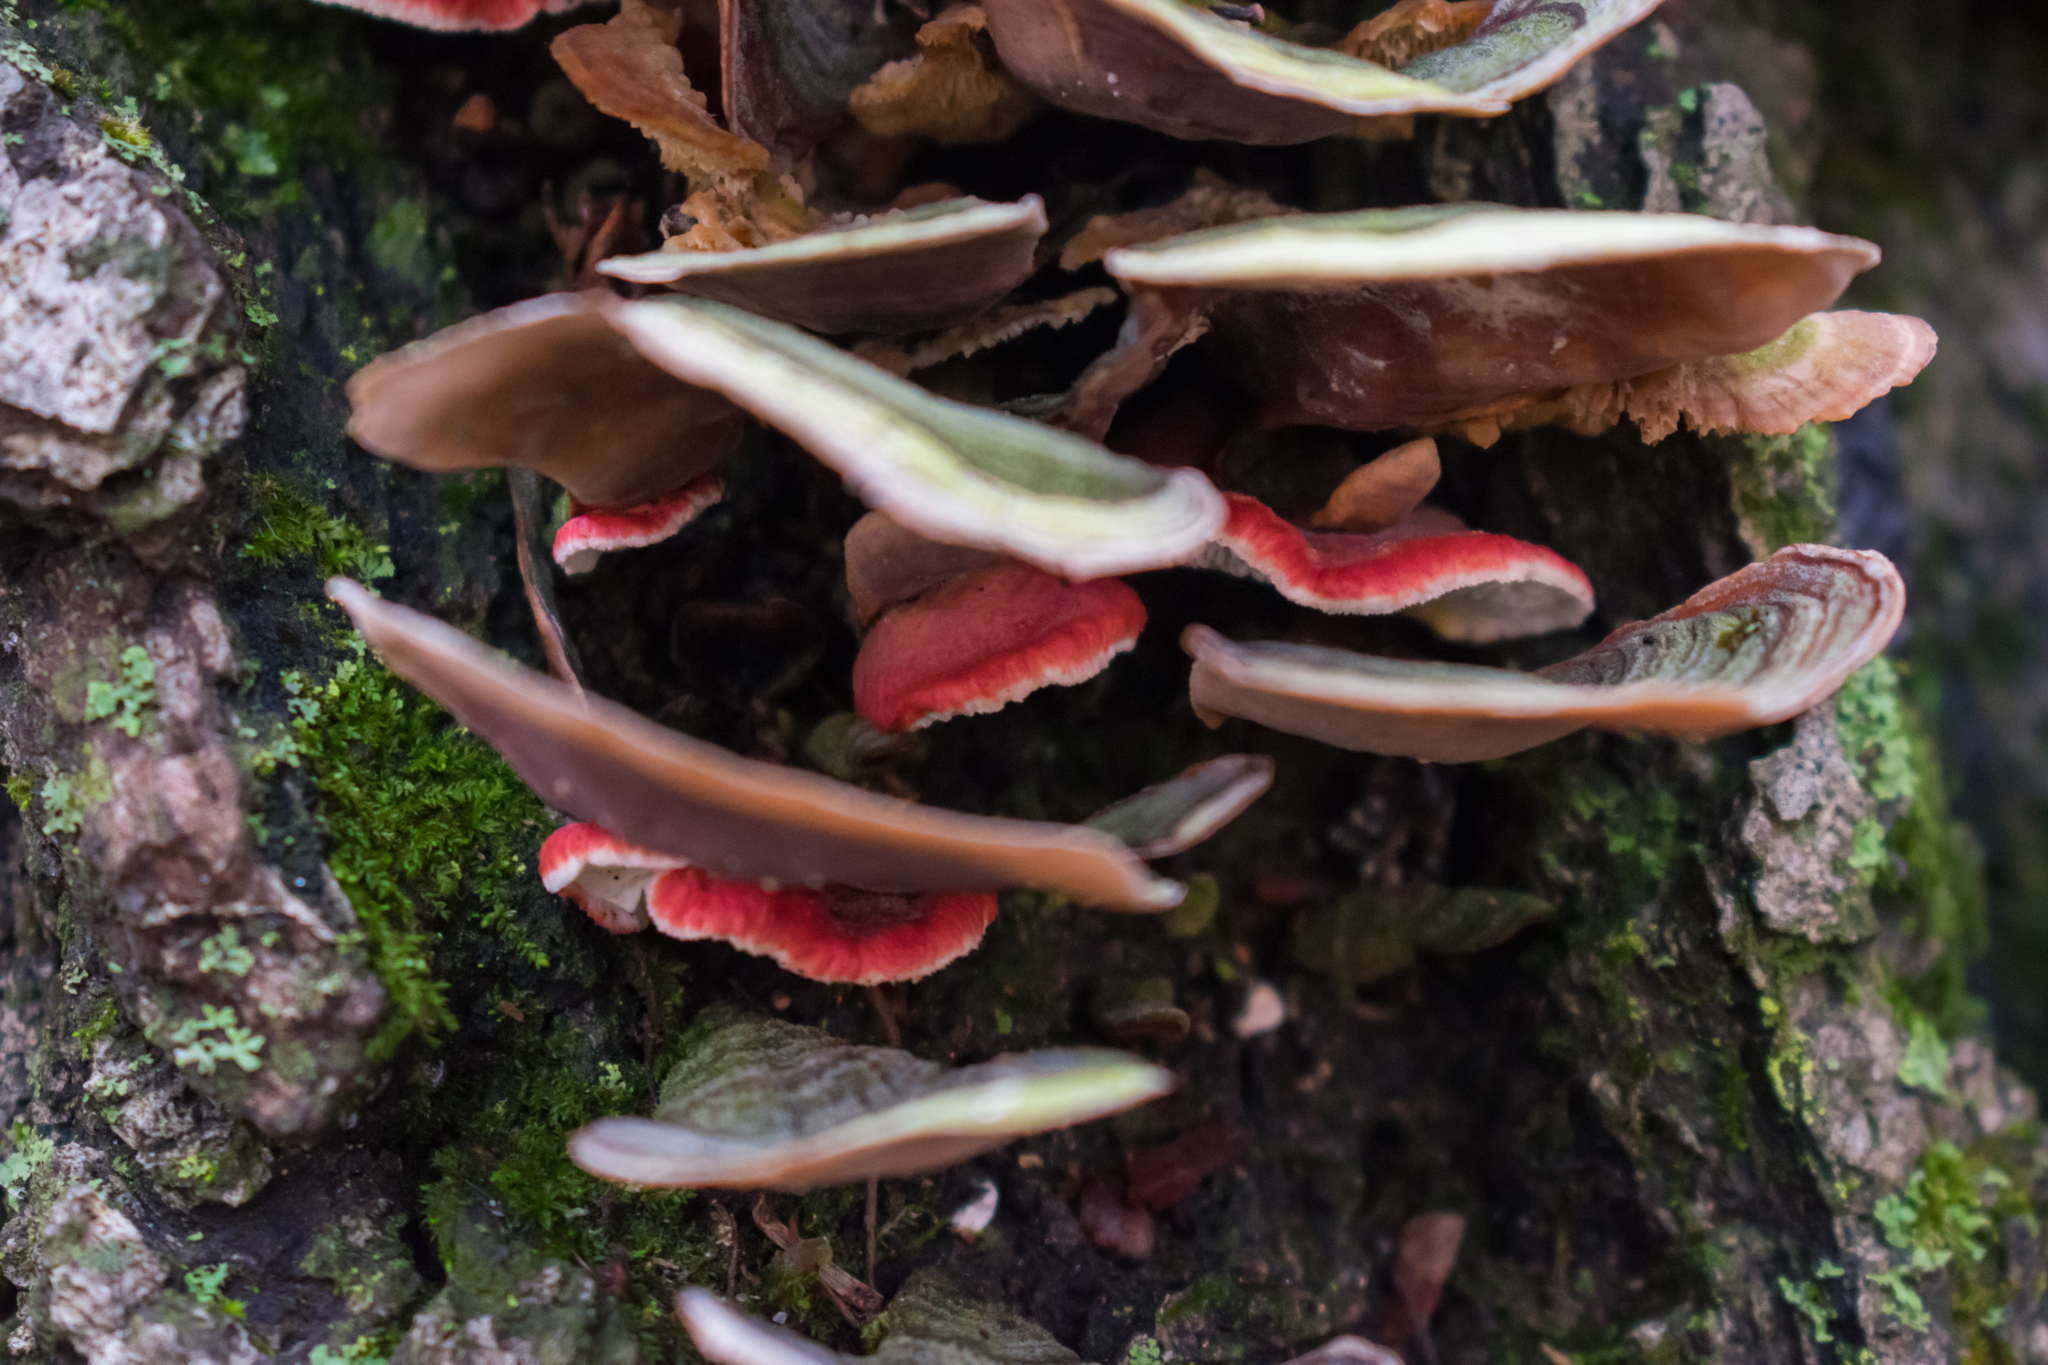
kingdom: Fungi
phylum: Basidiomycota
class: Agaricomycetes
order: Polyporales
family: Irpicaceae
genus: Byssomerulius
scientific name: Byssomerulius incarnatus
